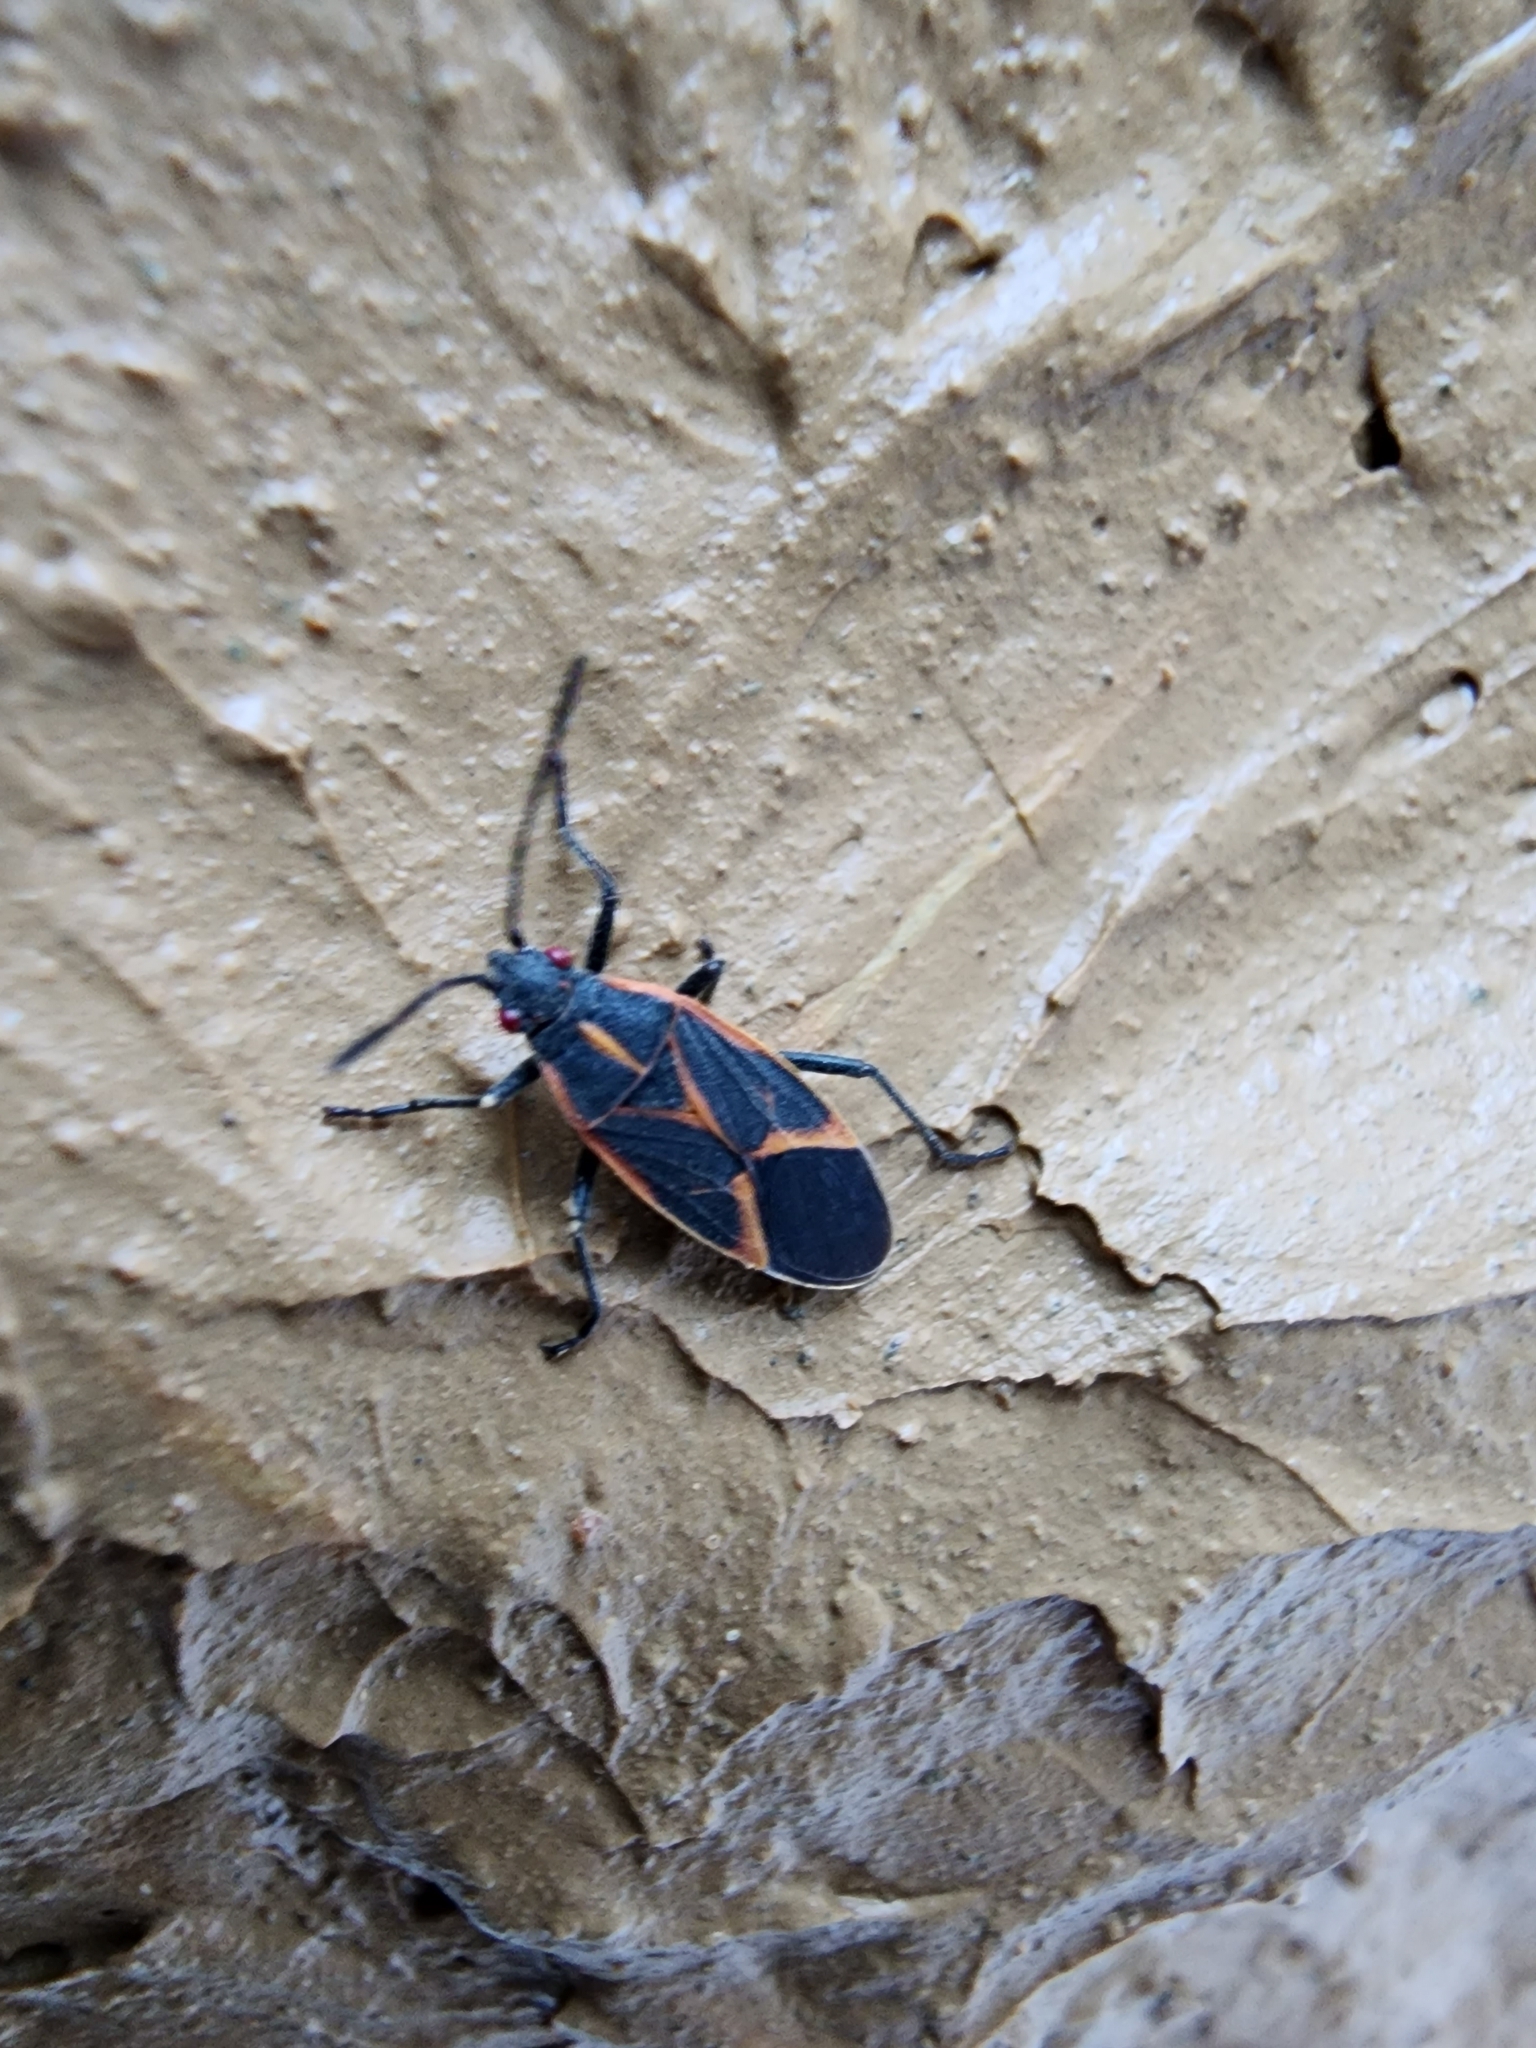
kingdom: Animalia
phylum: Arthropoda
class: Insecta
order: Hemiptera
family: Rhopalidae
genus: Boisea
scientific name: Boisea trivittata
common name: Boxelder bug
